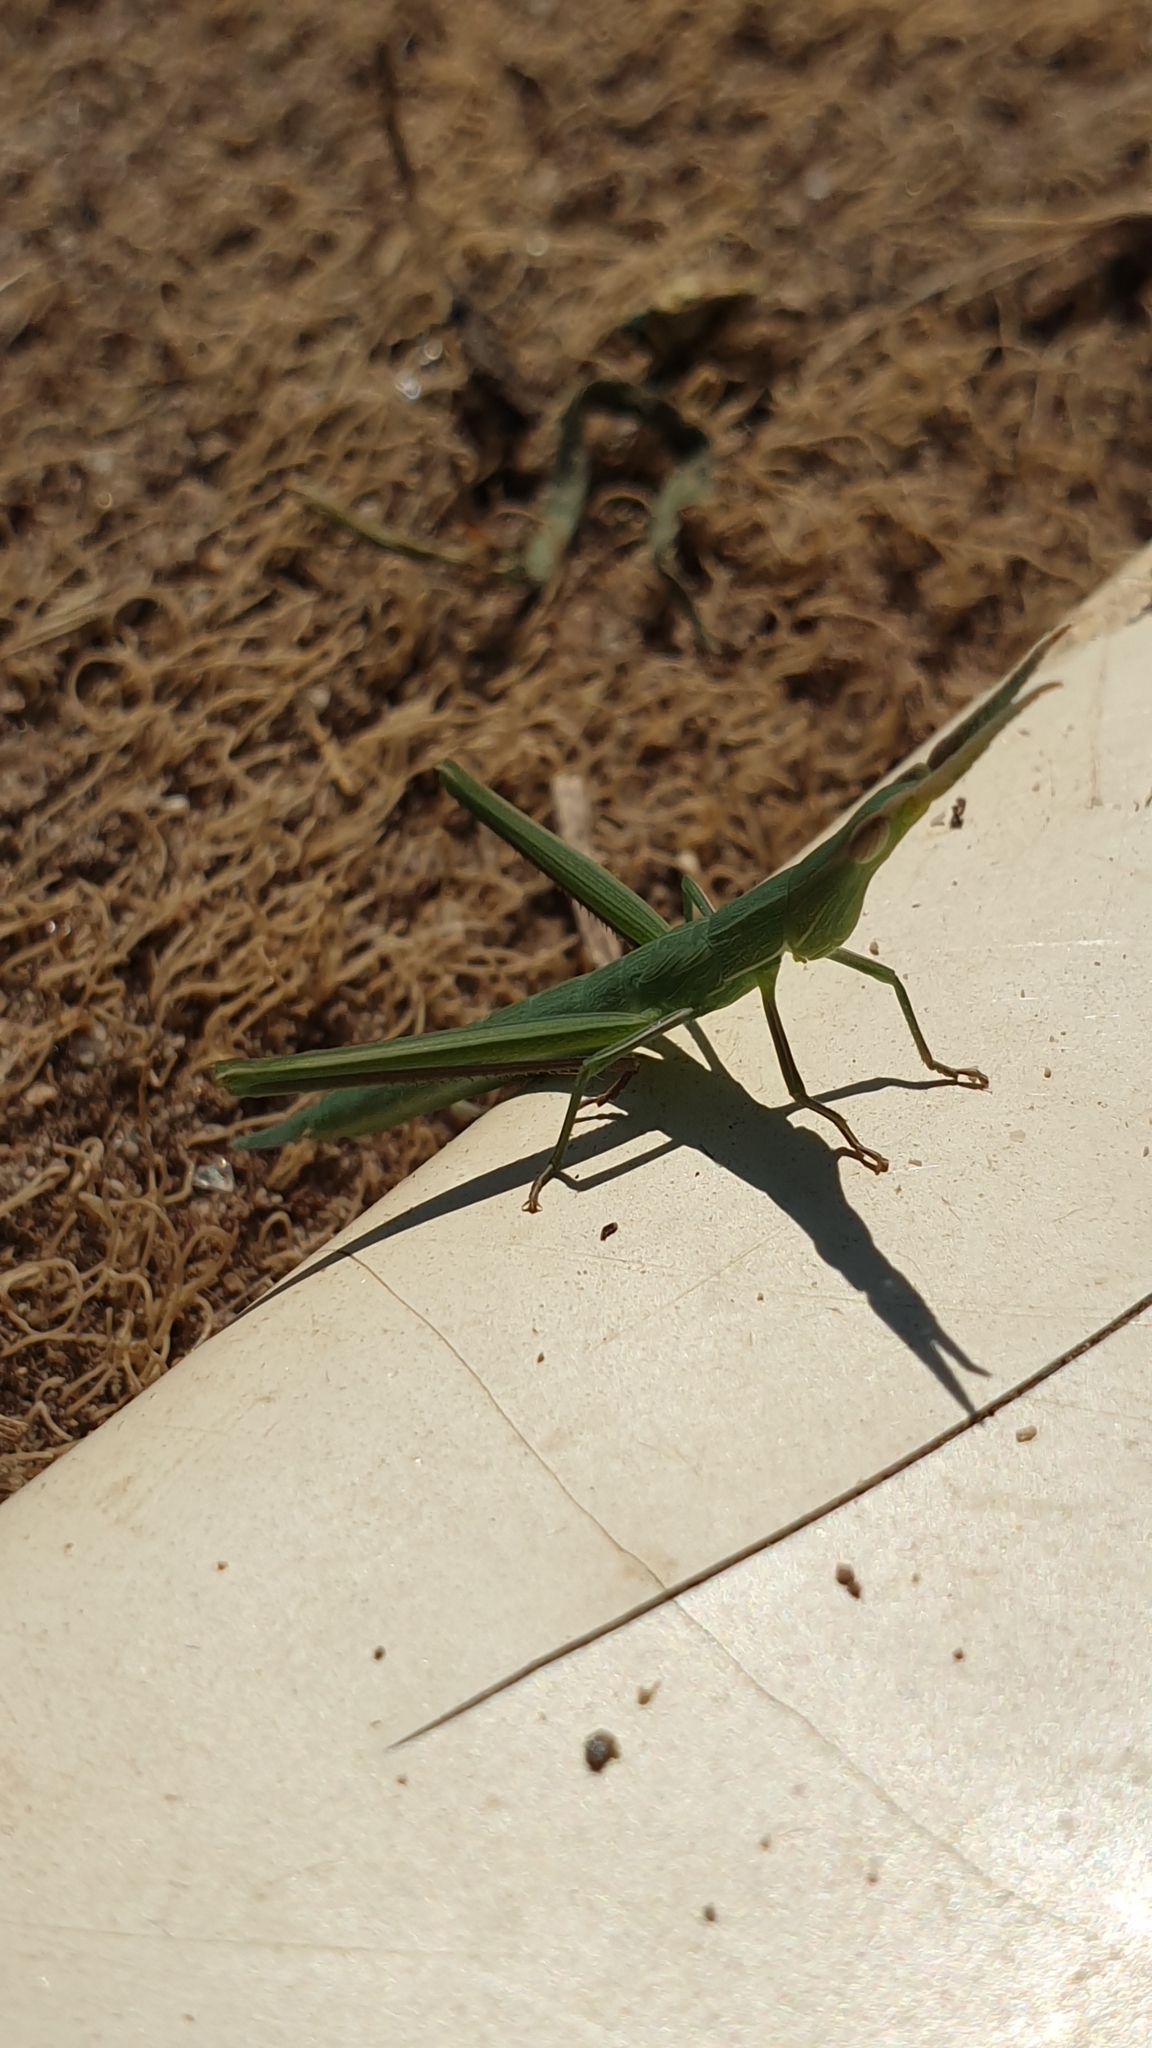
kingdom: Animalia
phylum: Arthropoda
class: Insecta
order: Orthoptera
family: Acrididae
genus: Acrida
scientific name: Acrida ungarica
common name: Common cone-headed grasshopper
